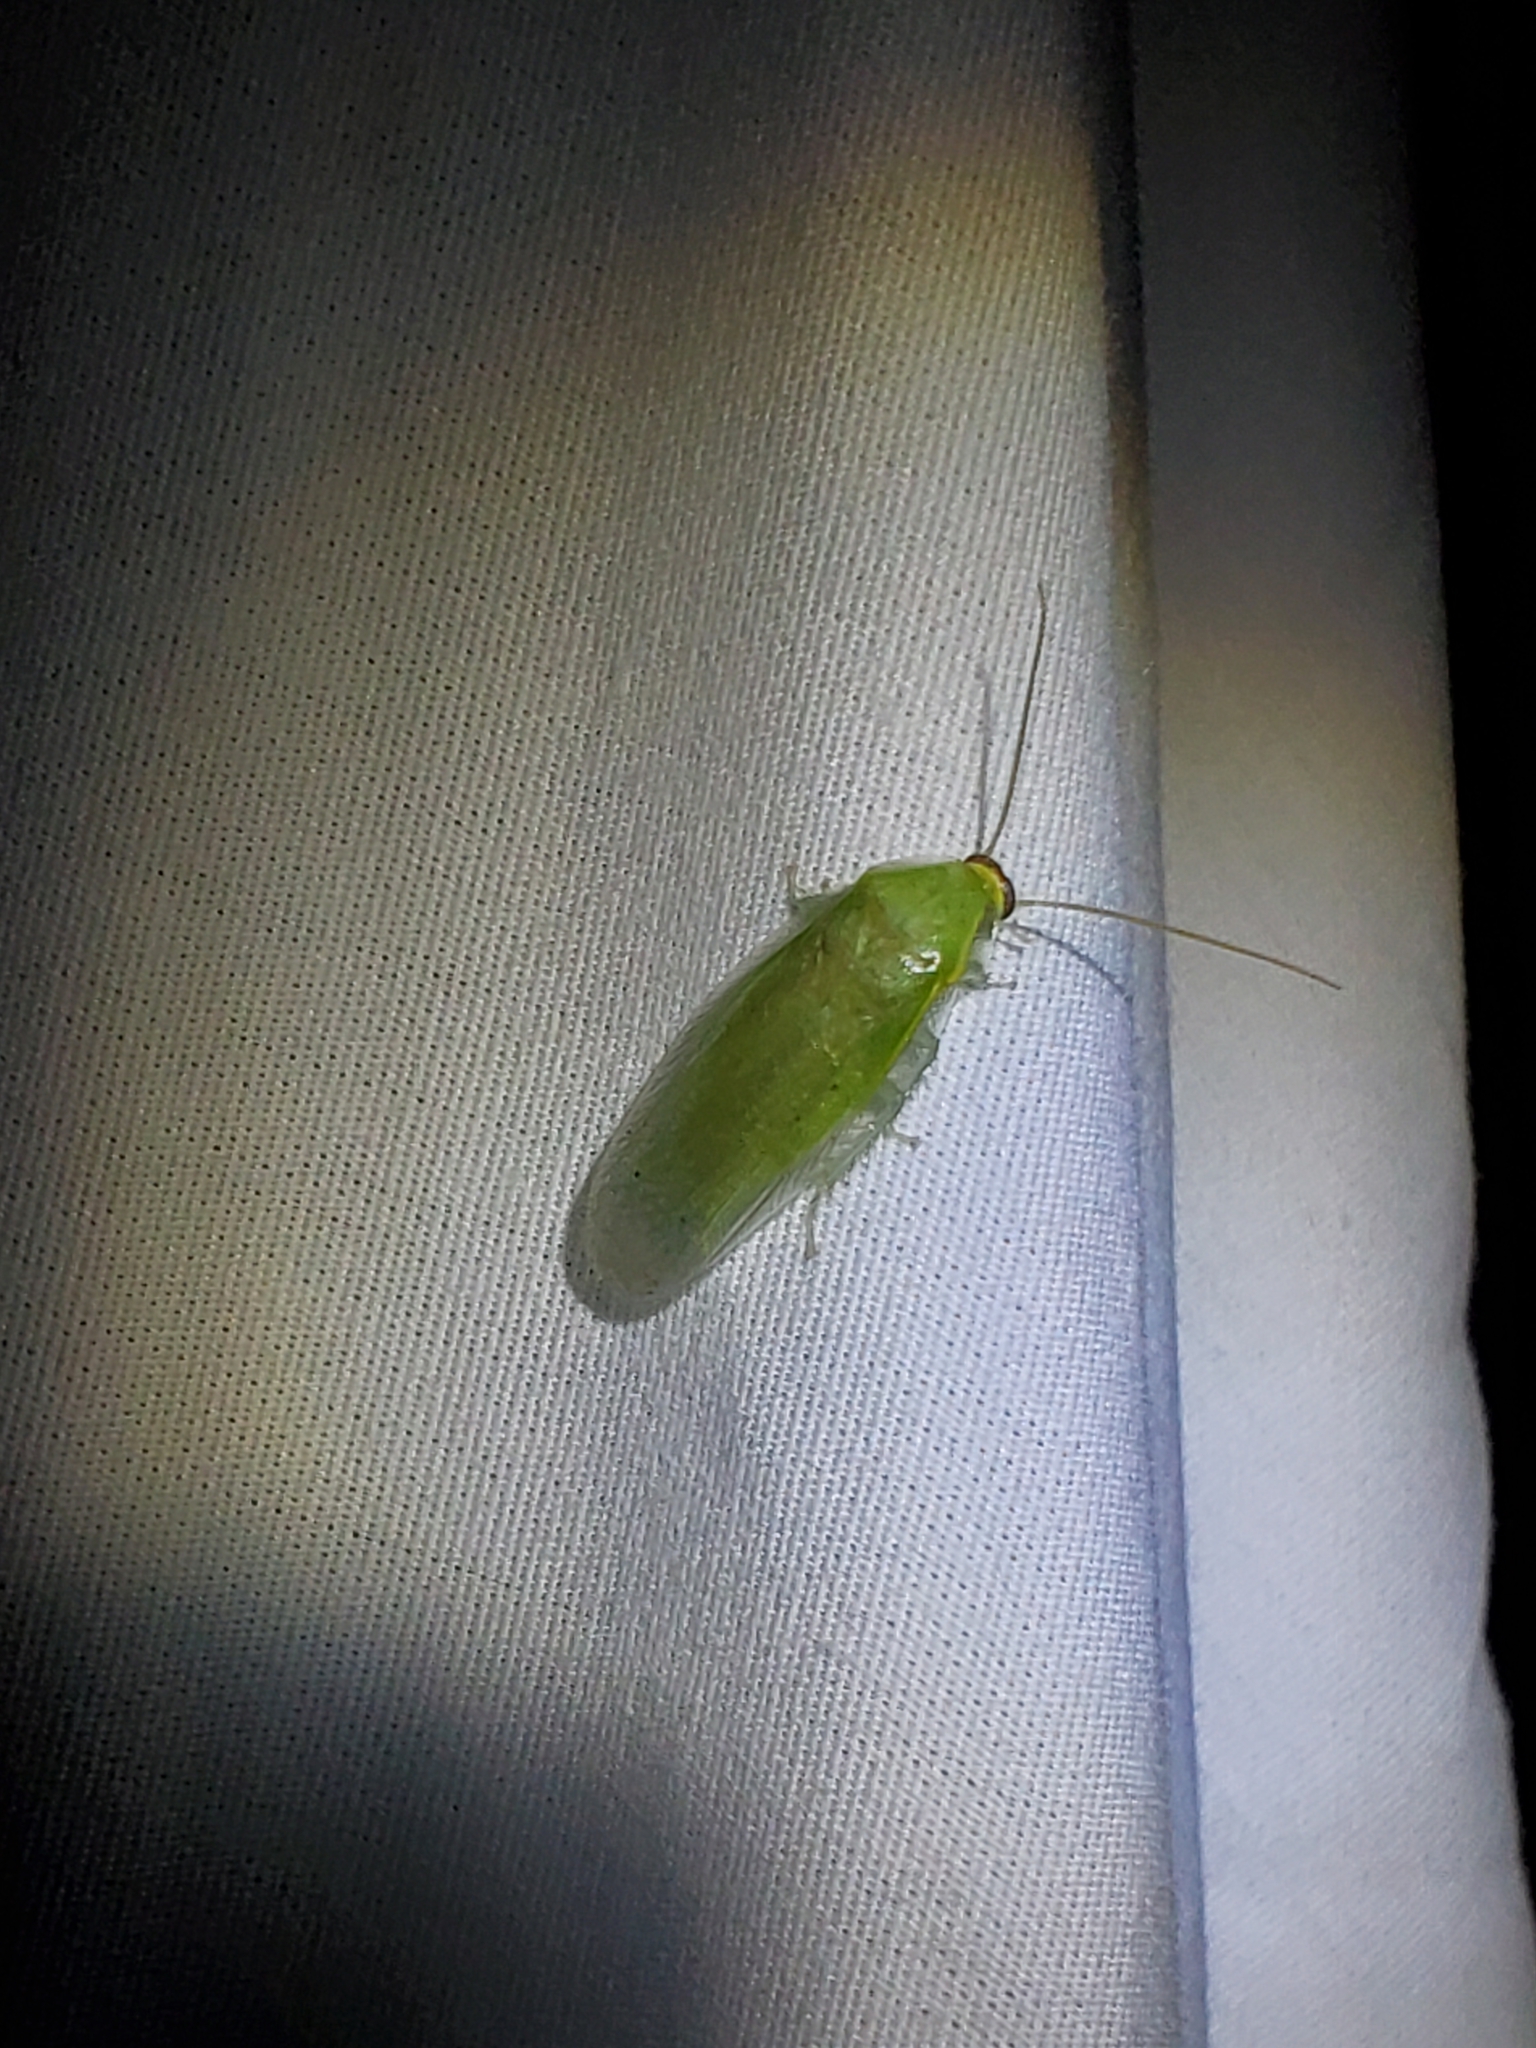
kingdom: Animalia
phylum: Arthropoda
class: Insecta
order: Blattodea
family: Blaberidae
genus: Panchlora
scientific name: Panchlora nivea
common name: Cuban cockroach
